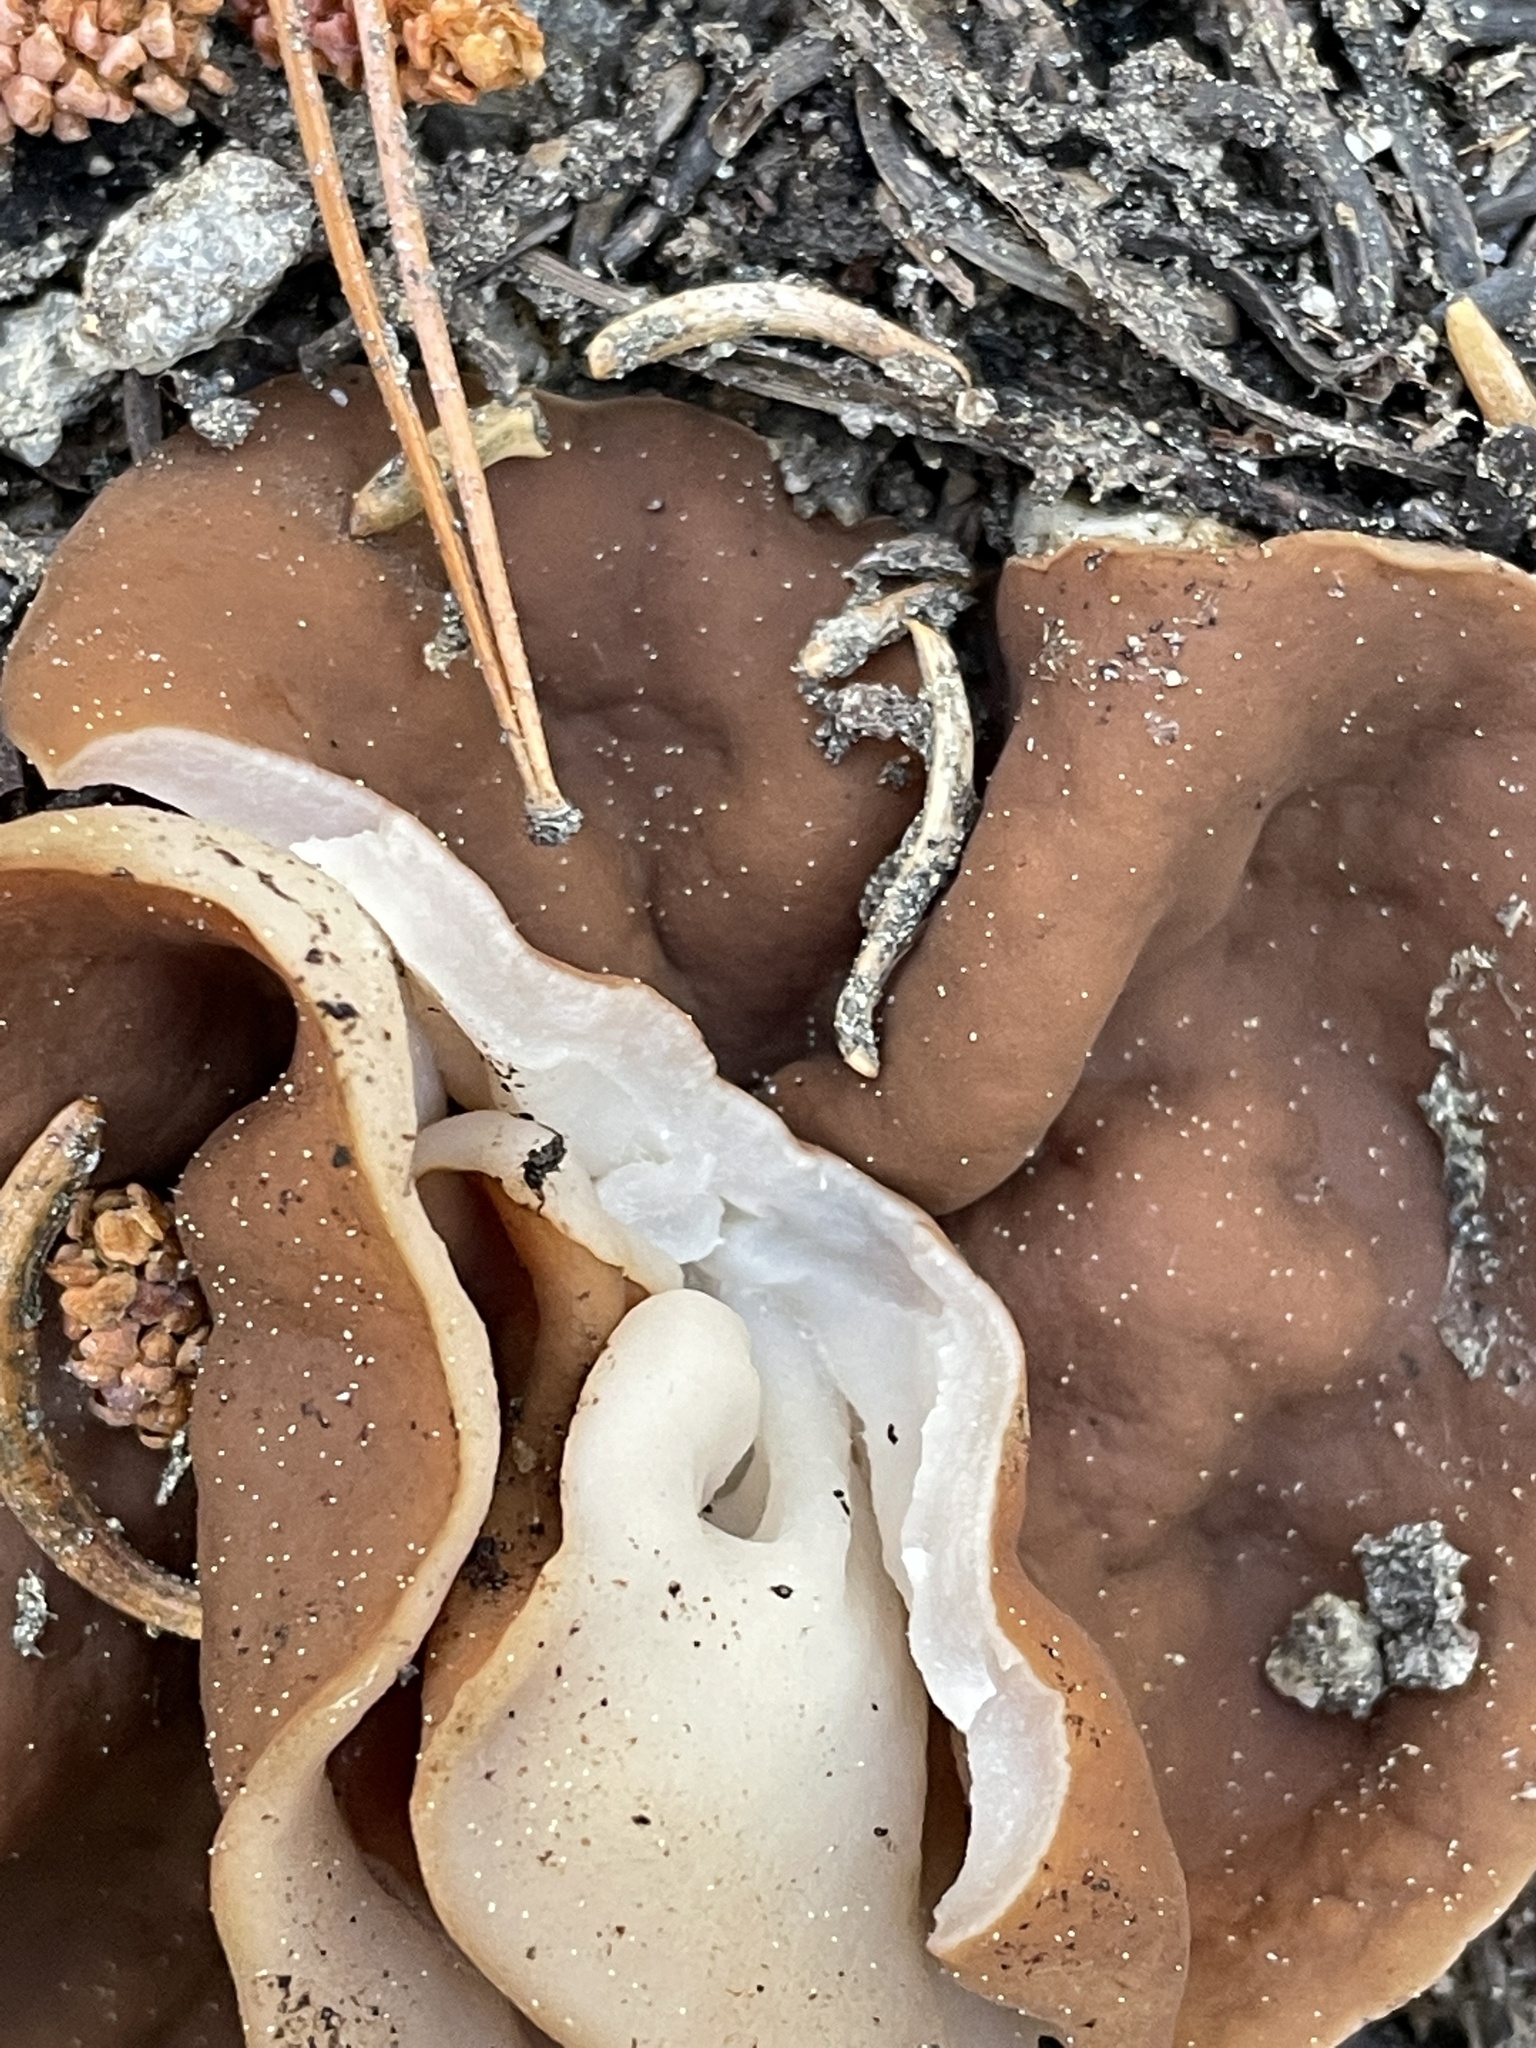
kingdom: Fungi
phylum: Ascomycota
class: Pezizomycetes
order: Pezizales
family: Discinaceae
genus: Discina
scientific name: Discina ancilis
